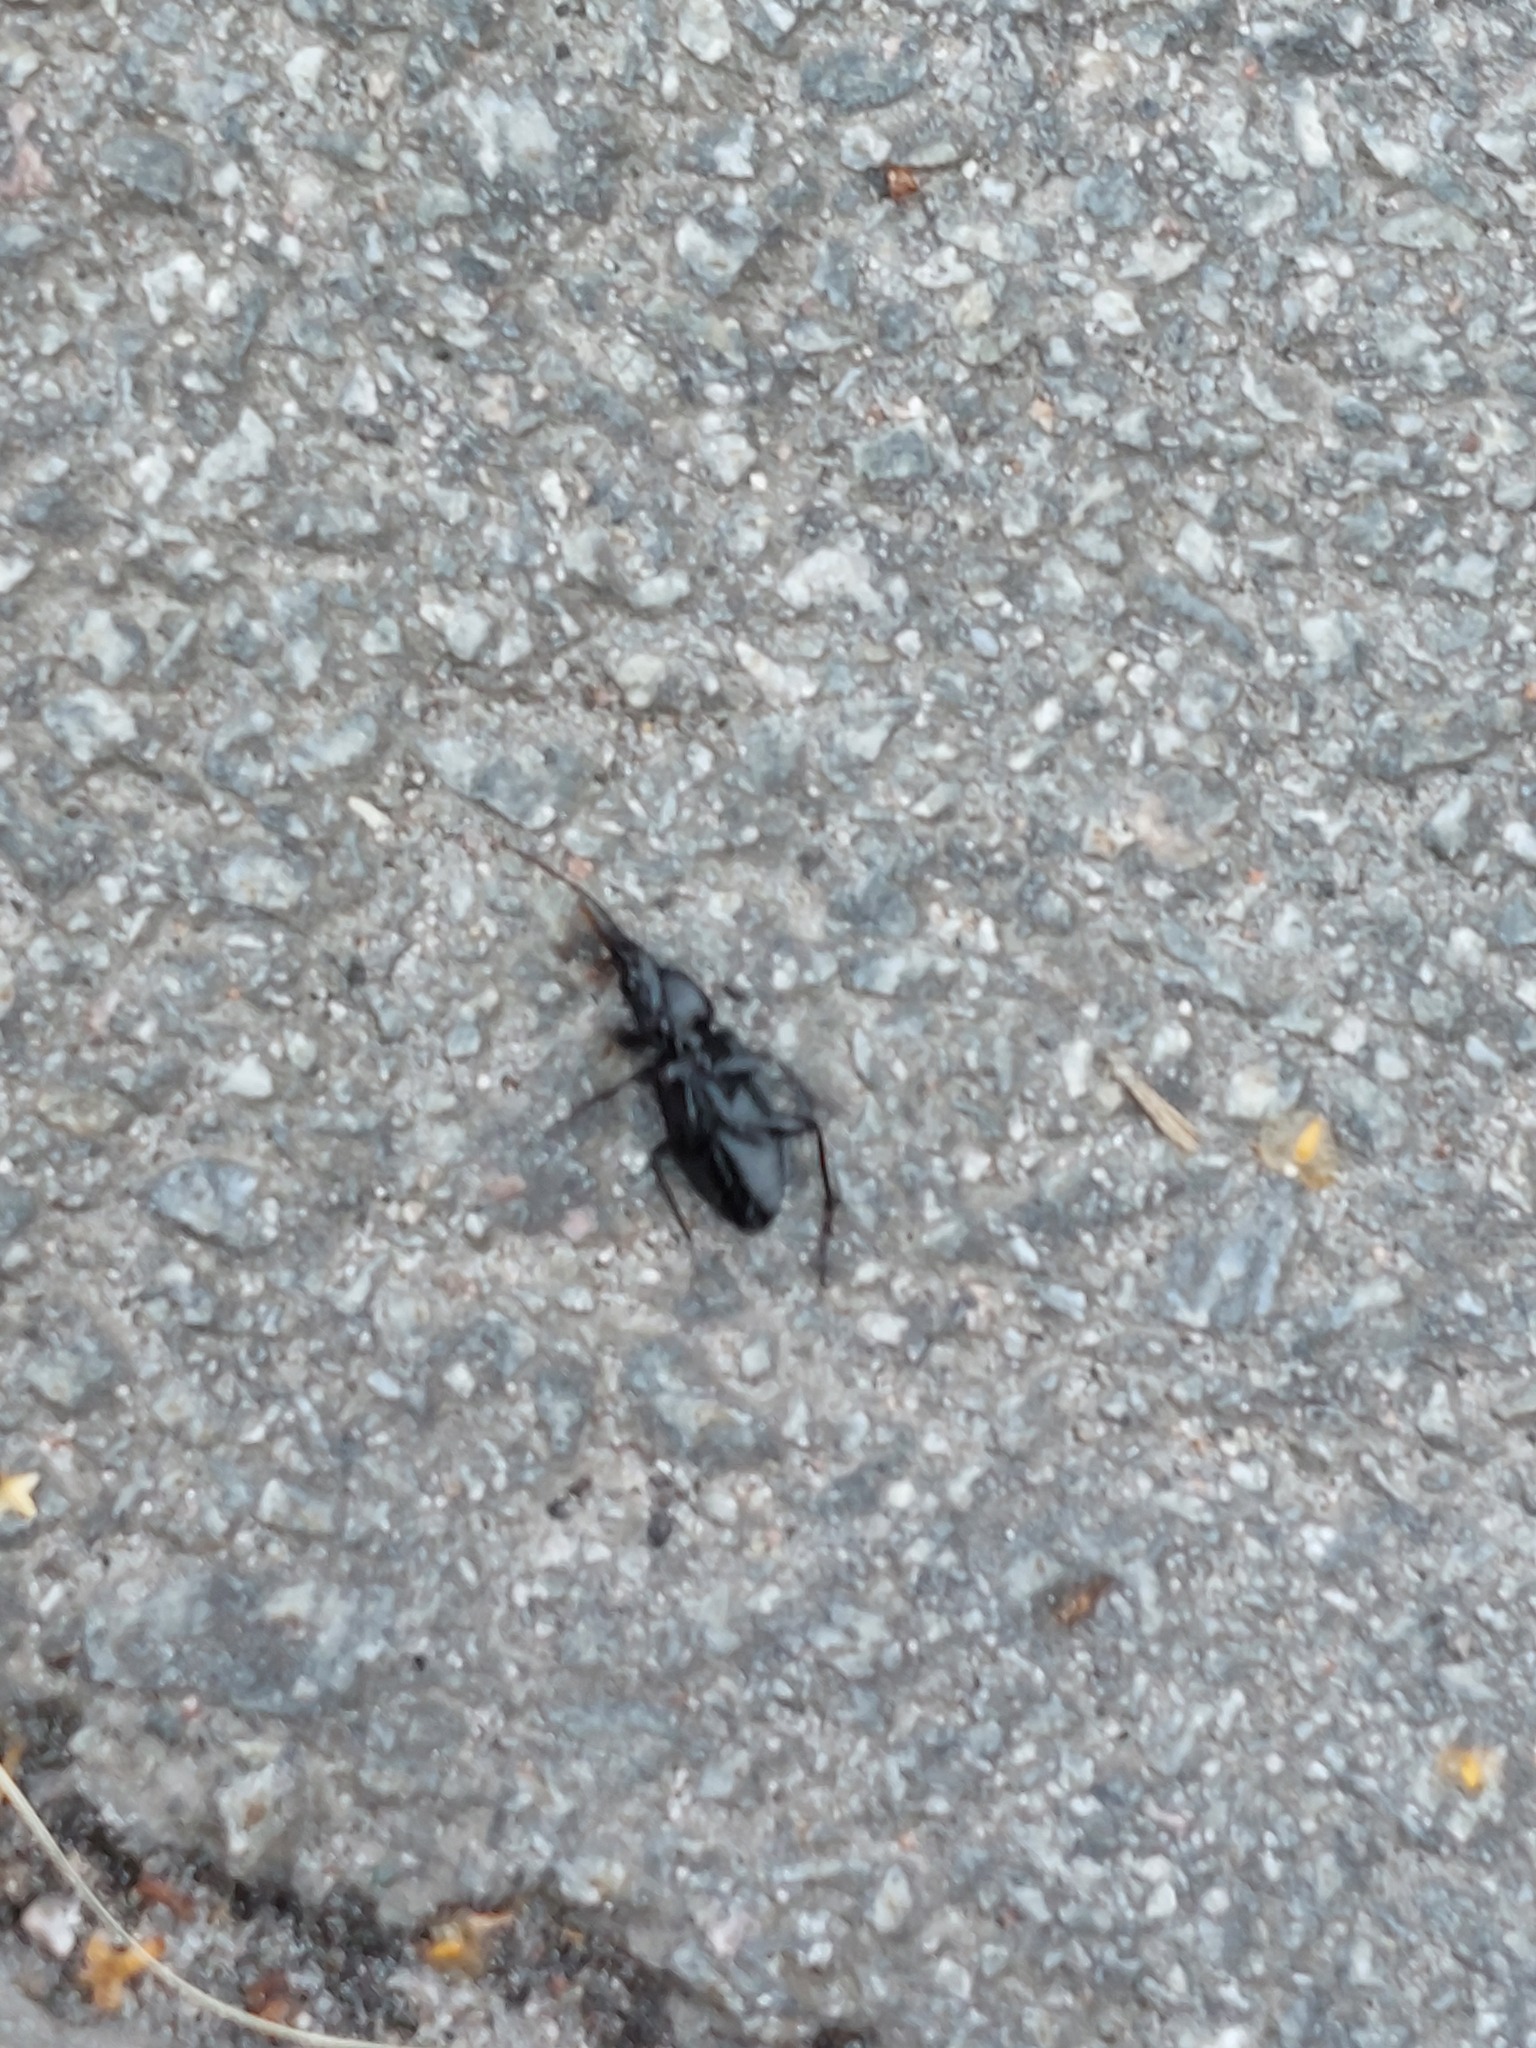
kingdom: Animalia
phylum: Arthropoda
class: Insecta
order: Coleoptera
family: Carabidae
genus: Pterostichus
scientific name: Pterostichus niger
